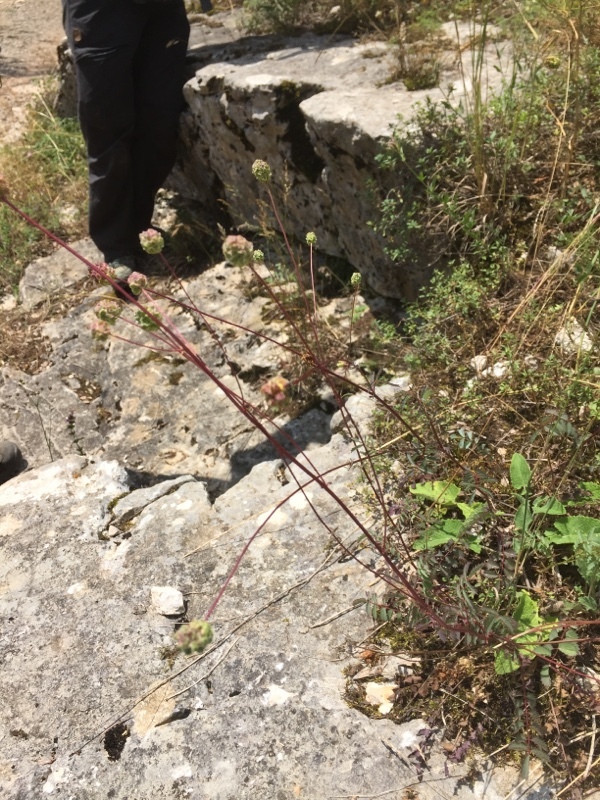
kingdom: Plantae
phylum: Tracheophyta
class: Magnoliopsida
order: Rosales
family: Rosaceae
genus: Poterium
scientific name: Poterium sanguisorba
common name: Salad burnet
